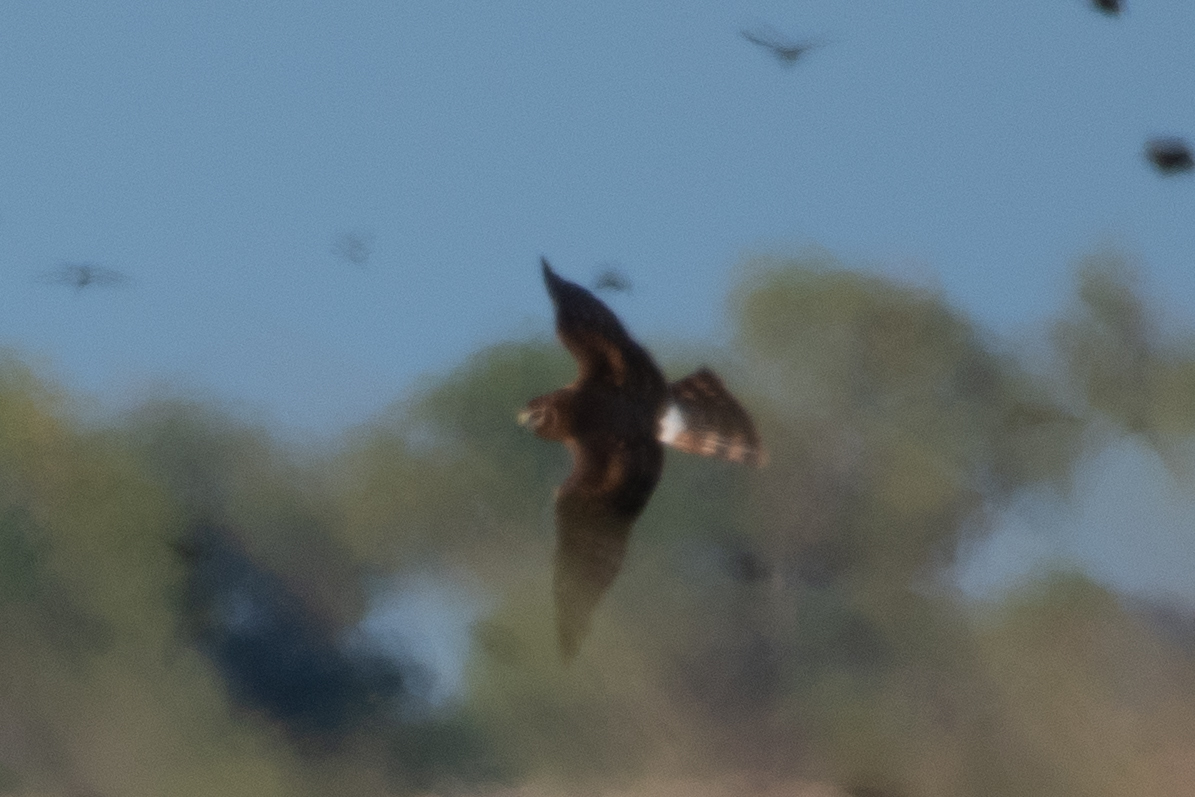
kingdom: Animalia
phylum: Chordata
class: Aves
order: Accipitriformes
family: Accipitridae
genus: Circus
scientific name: Circus cyaneus
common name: Hen harrier
